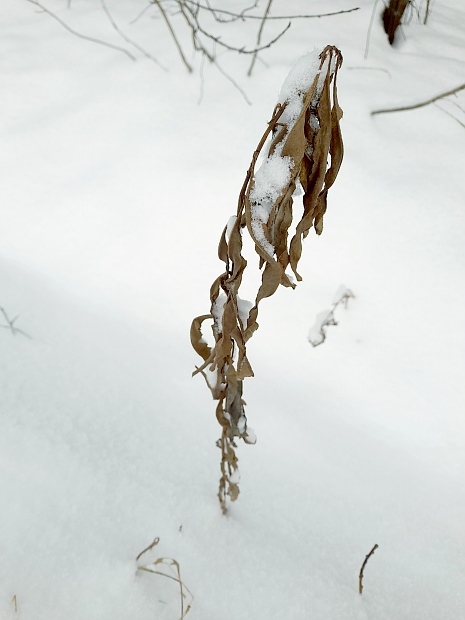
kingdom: Plantae
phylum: Tracheophyta
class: Magnoliopsida
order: Asterales
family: Asteraceae
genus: Cirsium
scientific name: Cirsium arvense
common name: Creeping thistle
